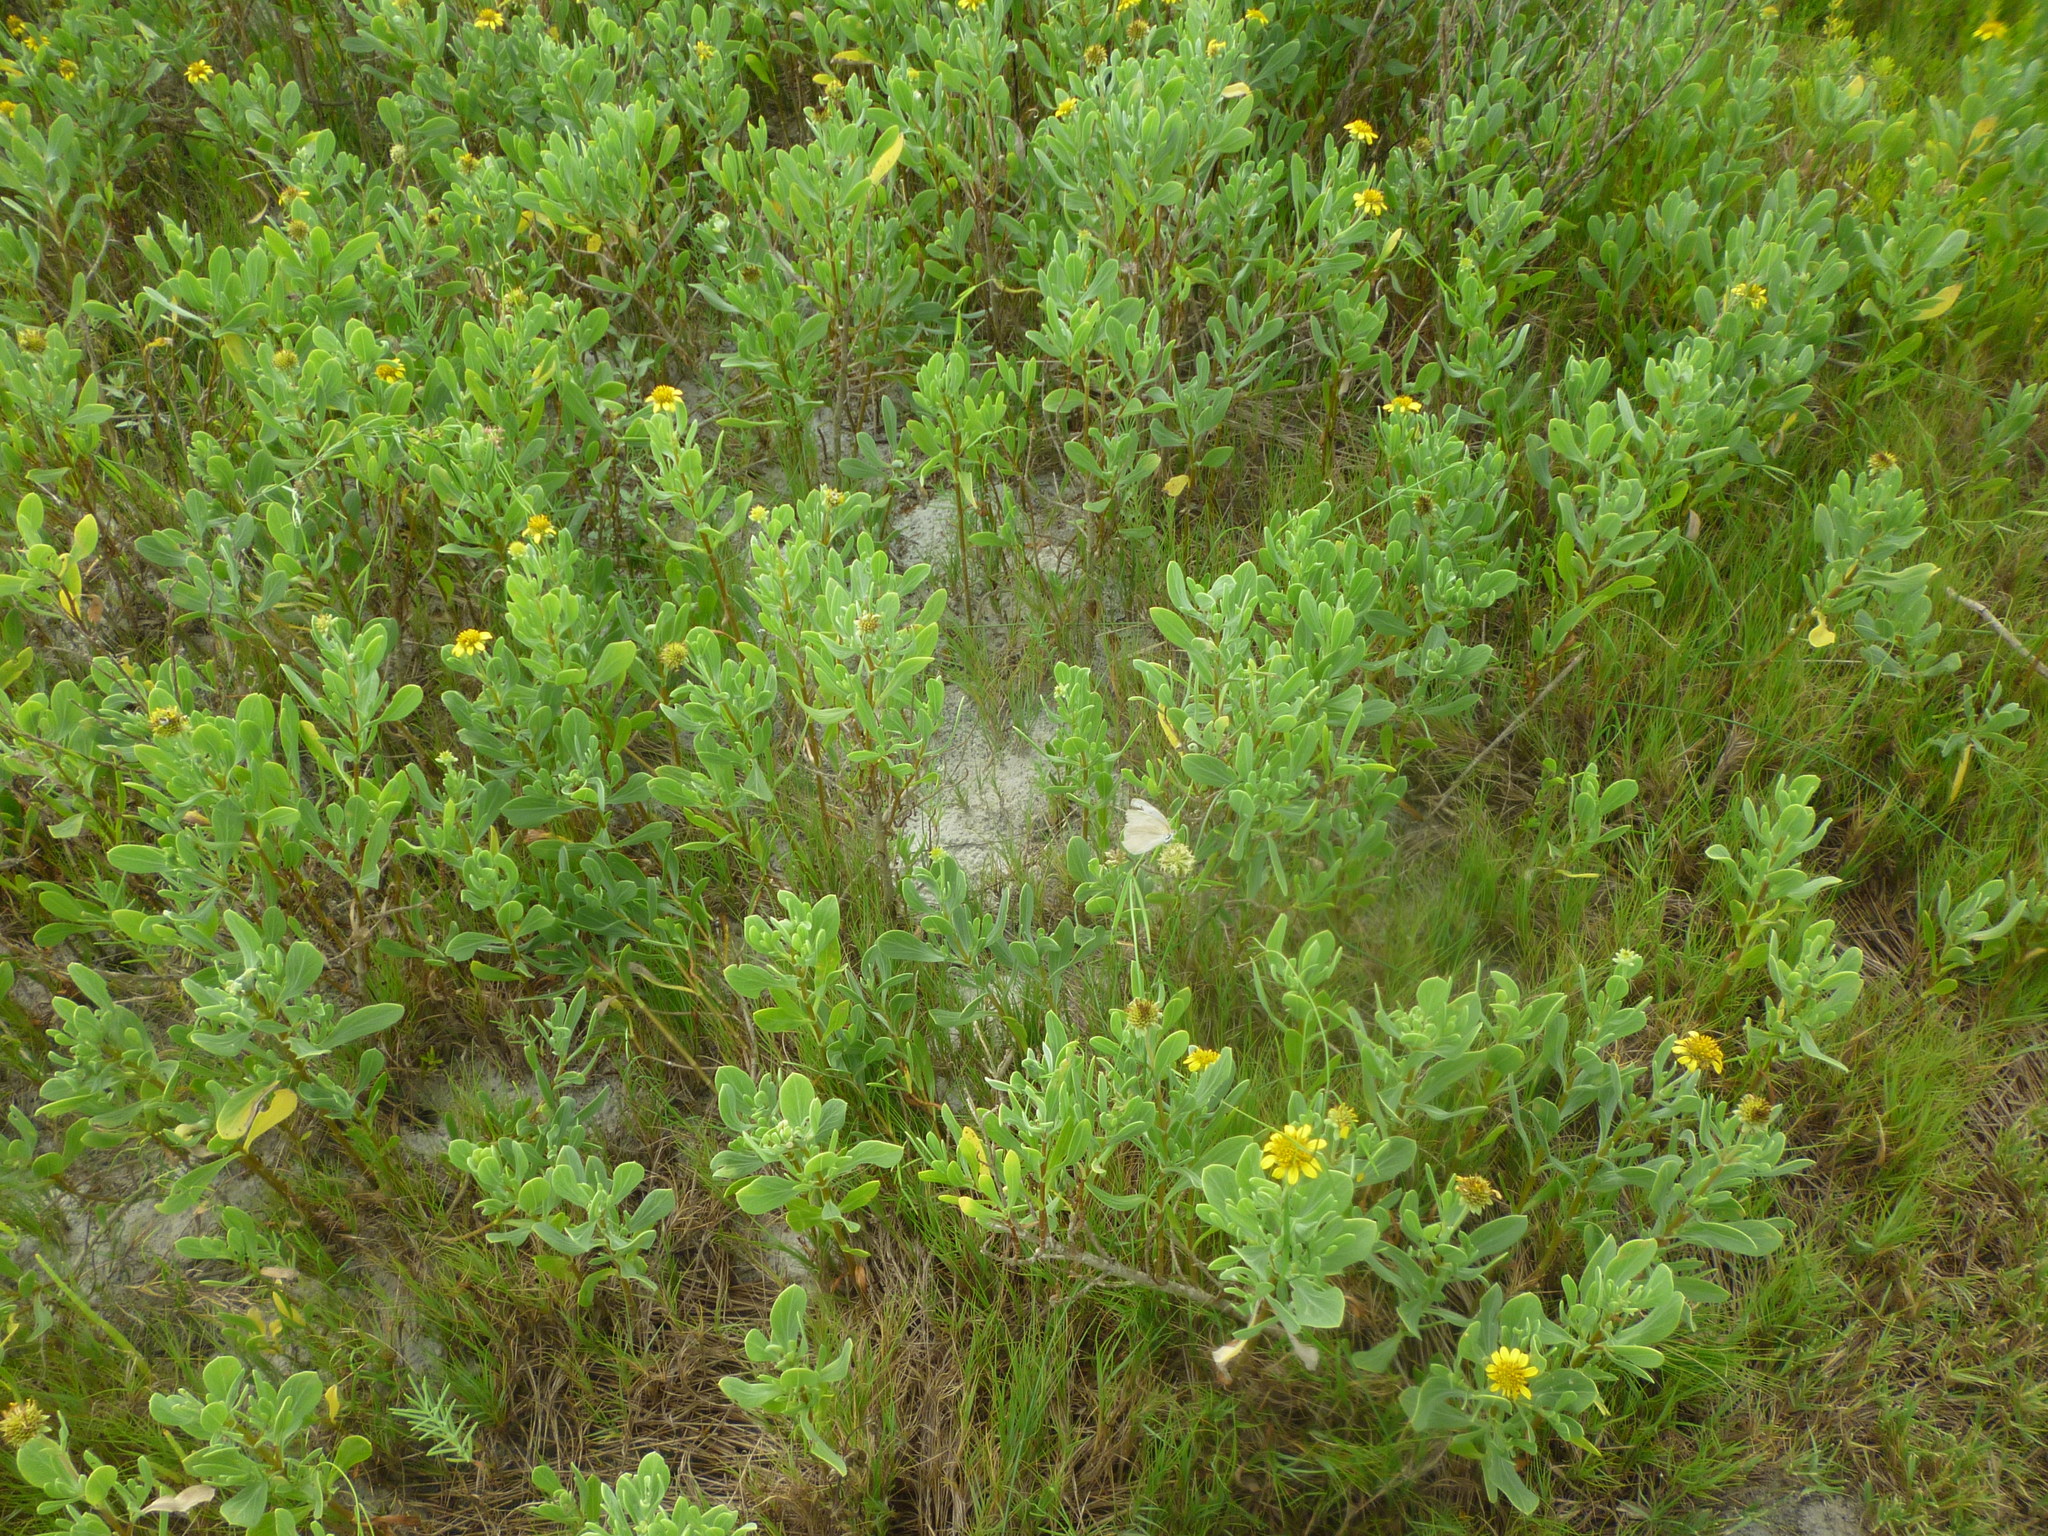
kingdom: Plantae
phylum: Tracheophyta
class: Magnoliopsida
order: Asterales
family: Asteraceae
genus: Borrichia
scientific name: Borrichia frutescens
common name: Sea oxeye
